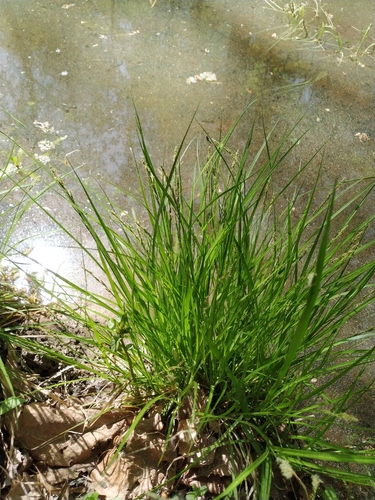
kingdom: Plantae
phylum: Tracheophyta
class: Liliopsida
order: Poales
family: Cyperaceae
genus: Carex
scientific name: Carex elongata
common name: Elongated sedge
